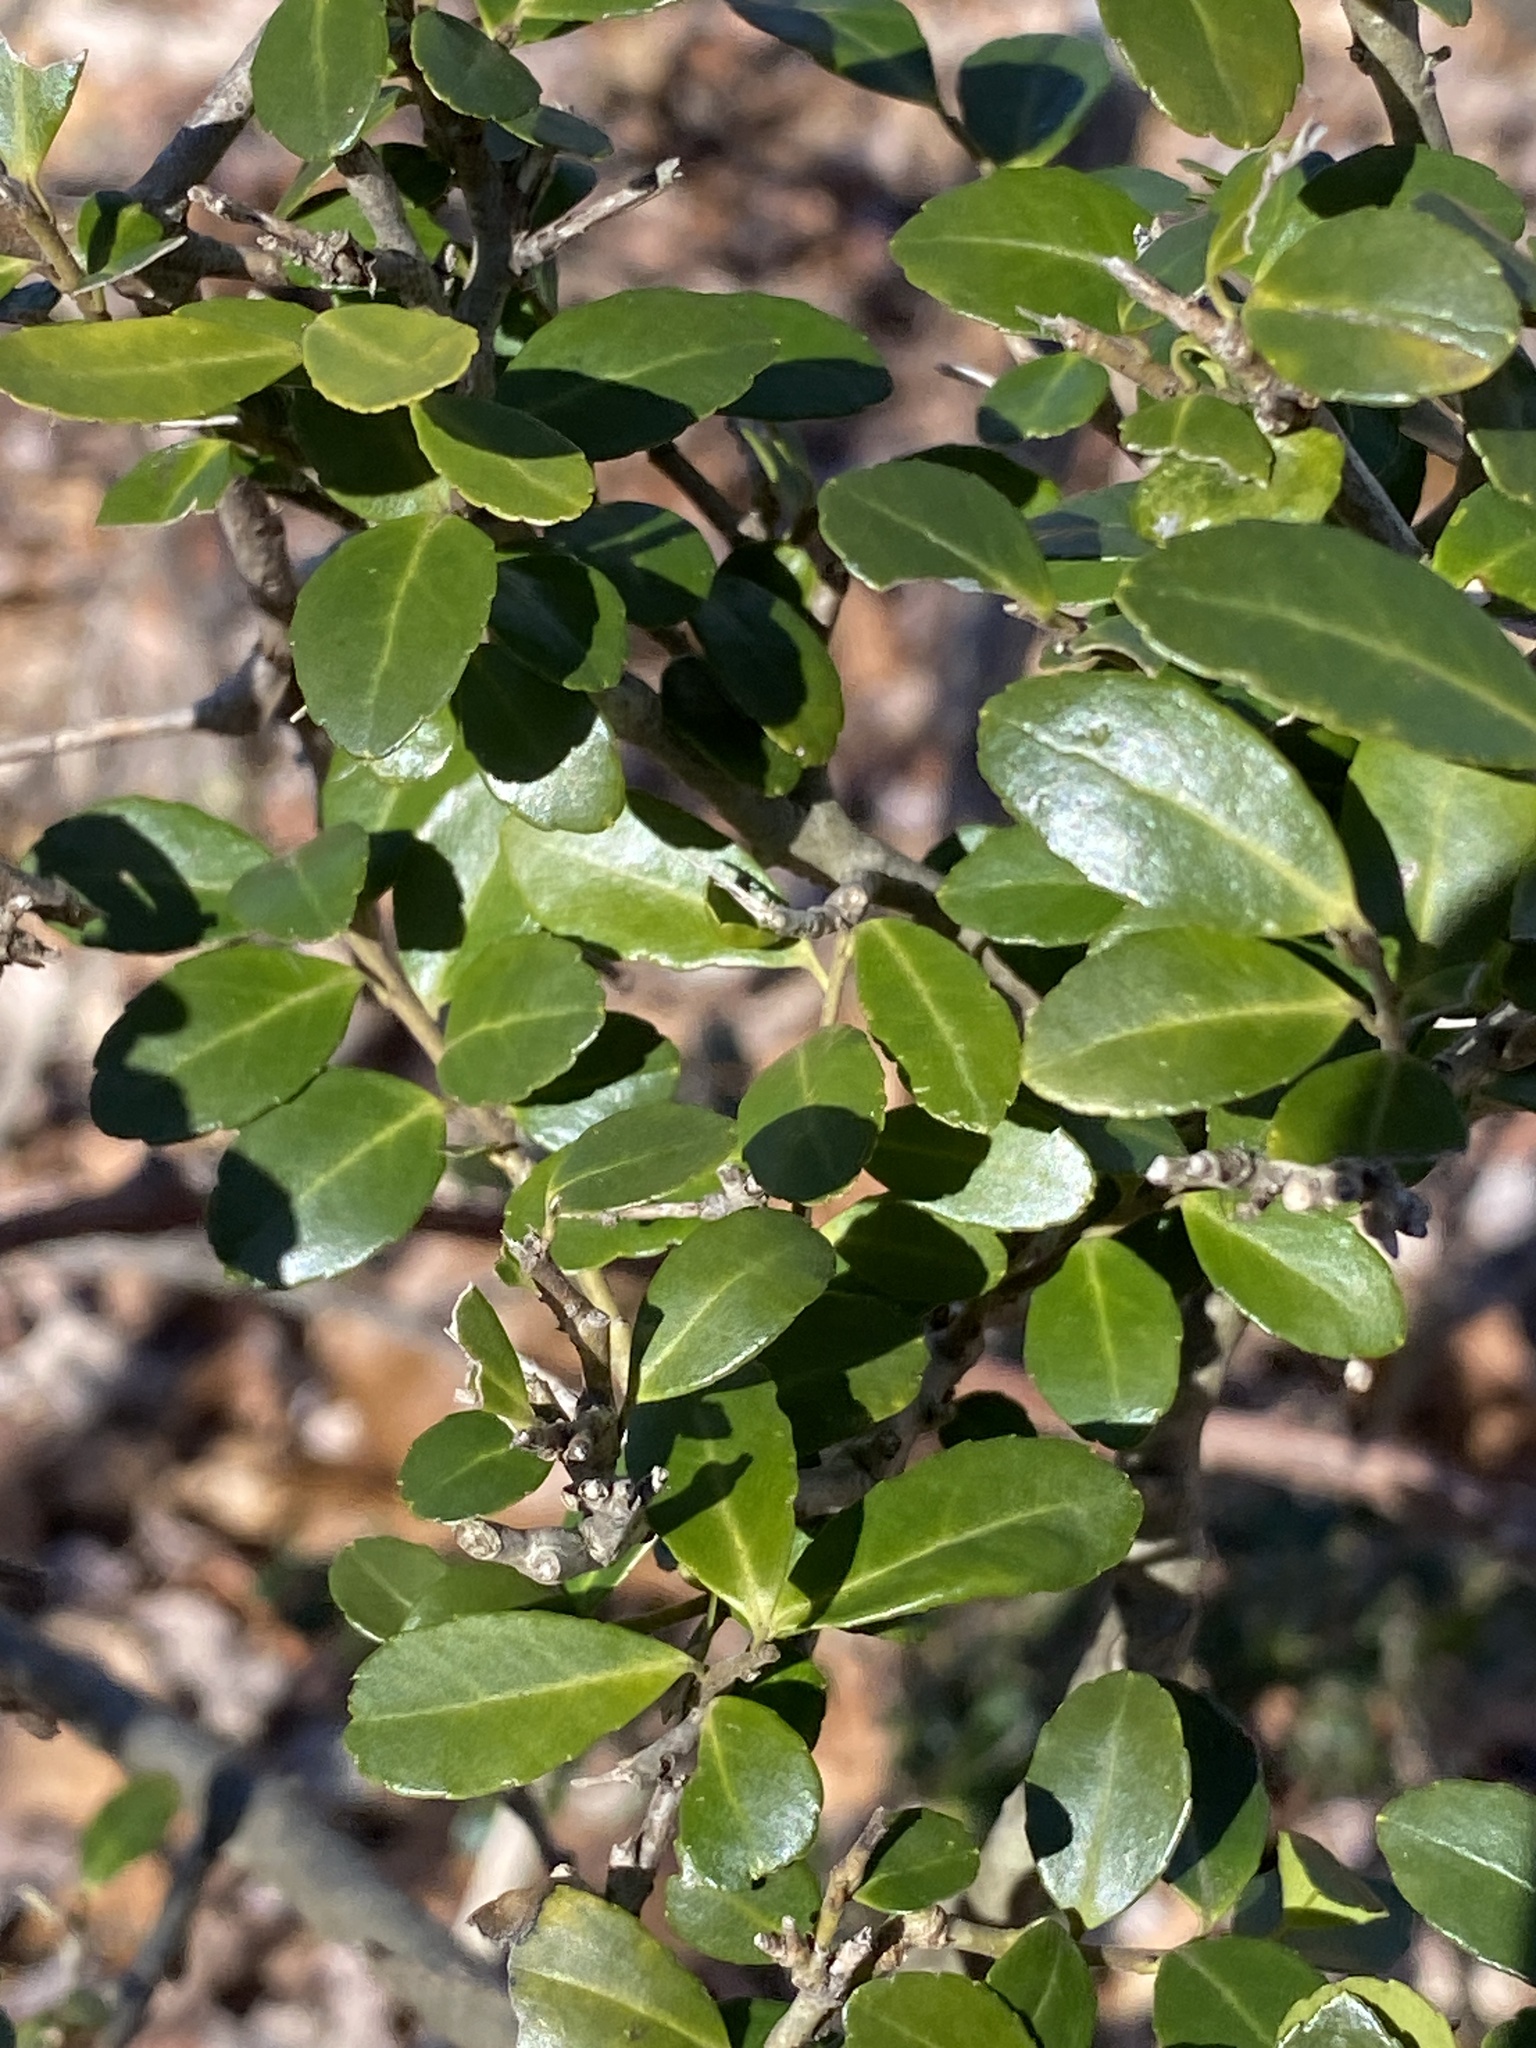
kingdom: Plantae
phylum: Tracheophyta
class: Magnoliopsida
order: Aquifoliales
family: Aquifoliaceae
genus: Ilex
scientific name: Ilex crenata
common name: Japanese holly
